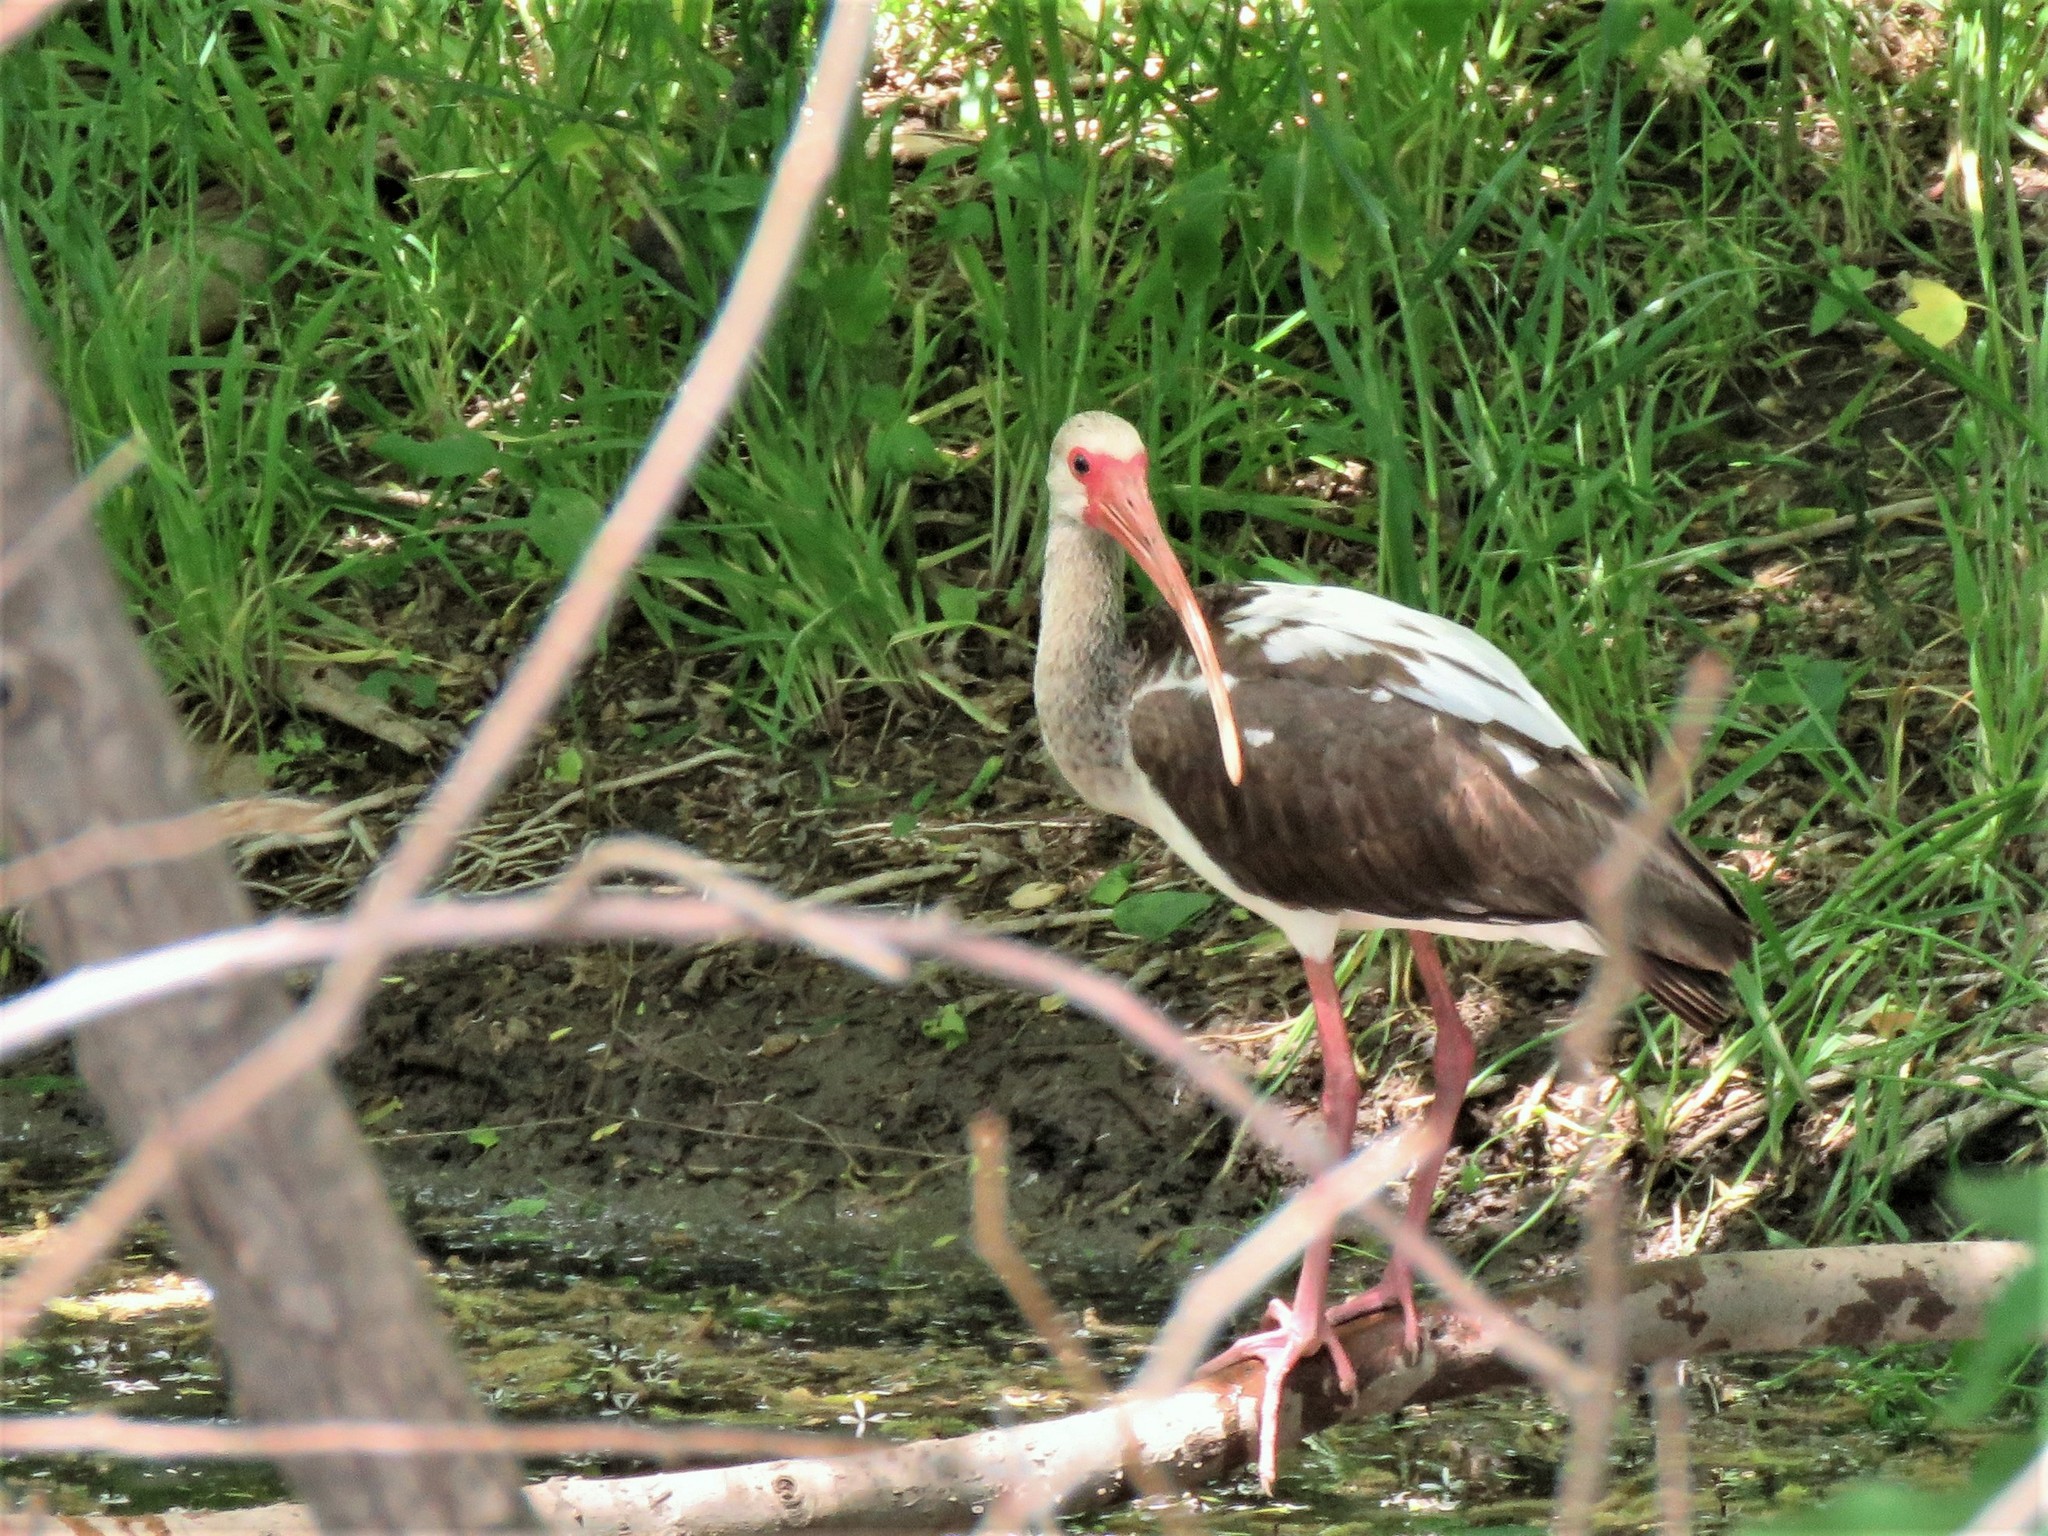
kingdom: Animalia
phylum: Chordata
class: Aves
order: Pelecaniformes
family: Threskiornithidae
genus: Eudocimus
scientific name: Eudocimus albus
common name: White ibis
